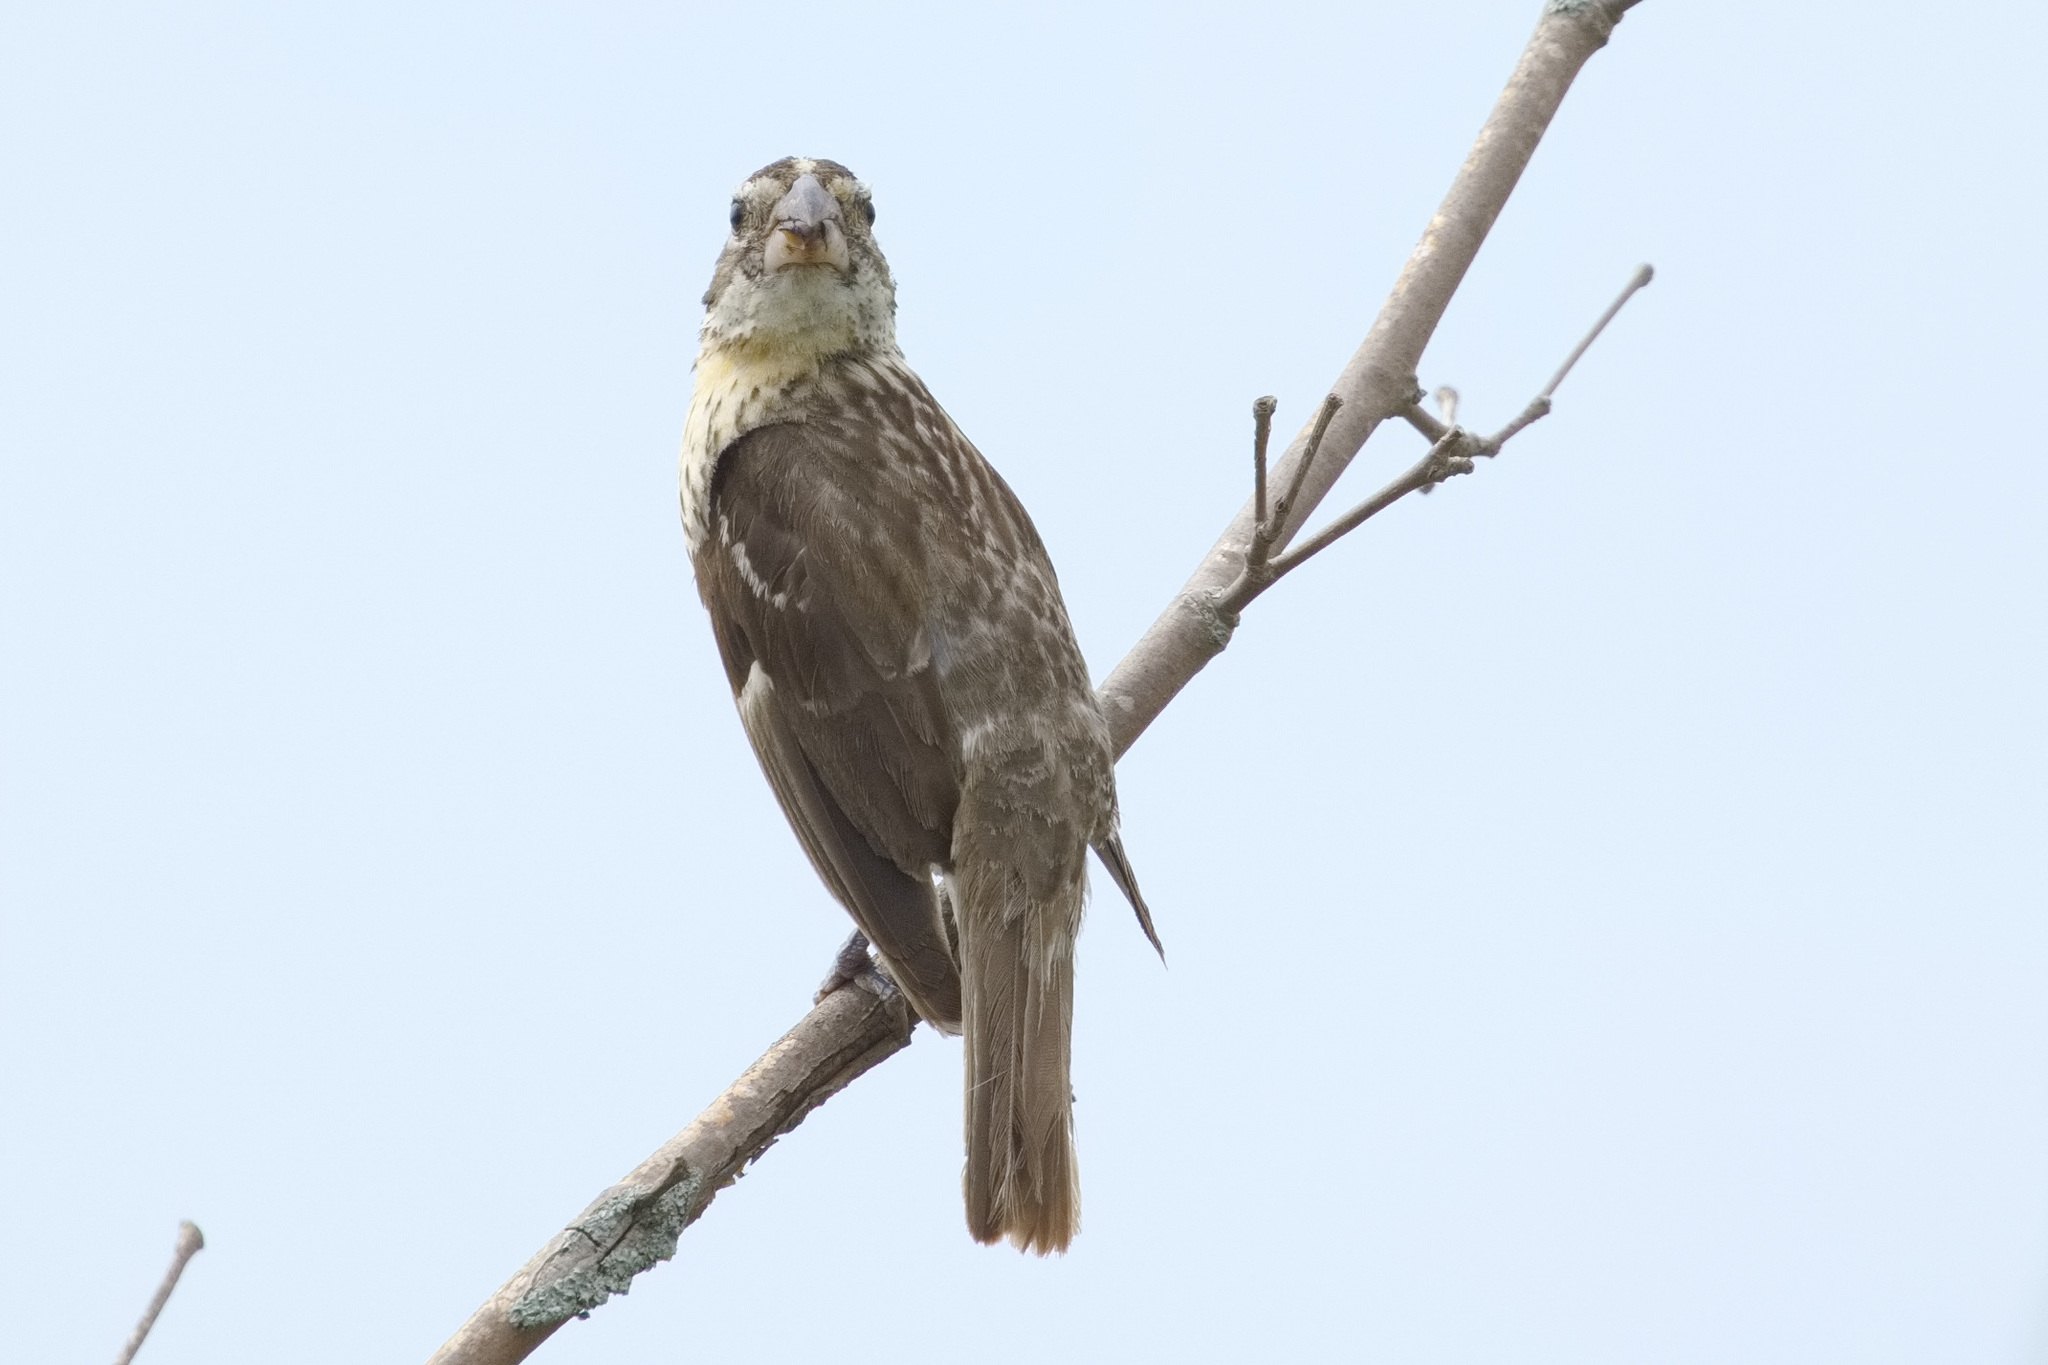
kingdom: Animalia
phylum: Chordata
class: Aves
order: Passeriformes
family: Cardinalidae
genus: Pheucticus
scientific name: Pheucticus ludovicianus
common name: Rose-breasted grosbeak
